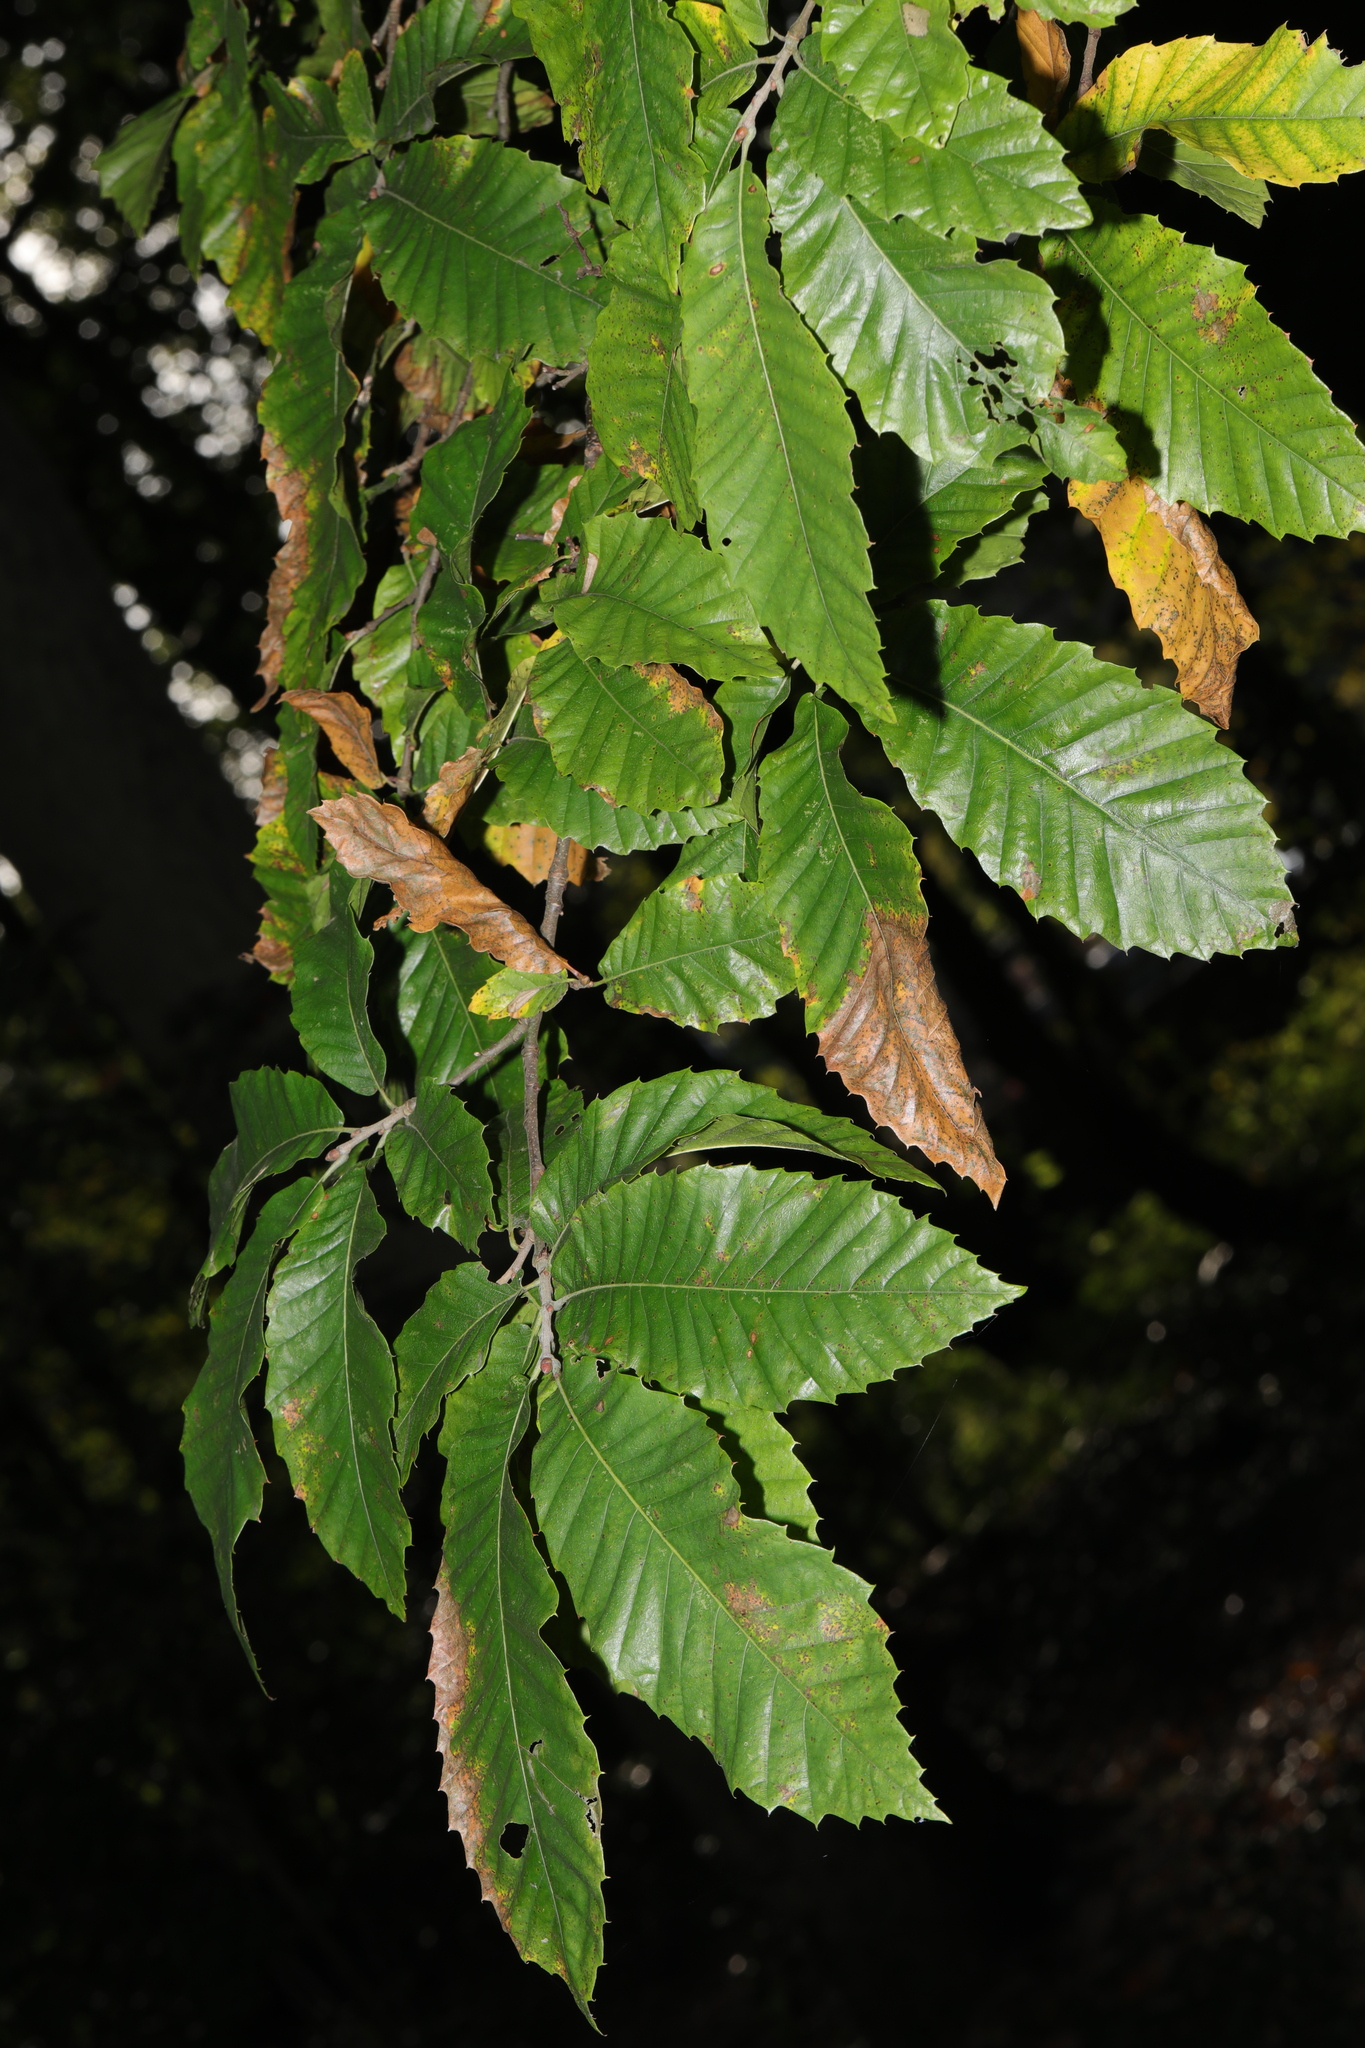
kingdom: Plantae
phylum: Tracheophyta
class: Magnoliopsida
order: Fagales
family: Fagaceae
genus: Castanea
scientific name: Castanea sativa
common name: Sweet chestnut
